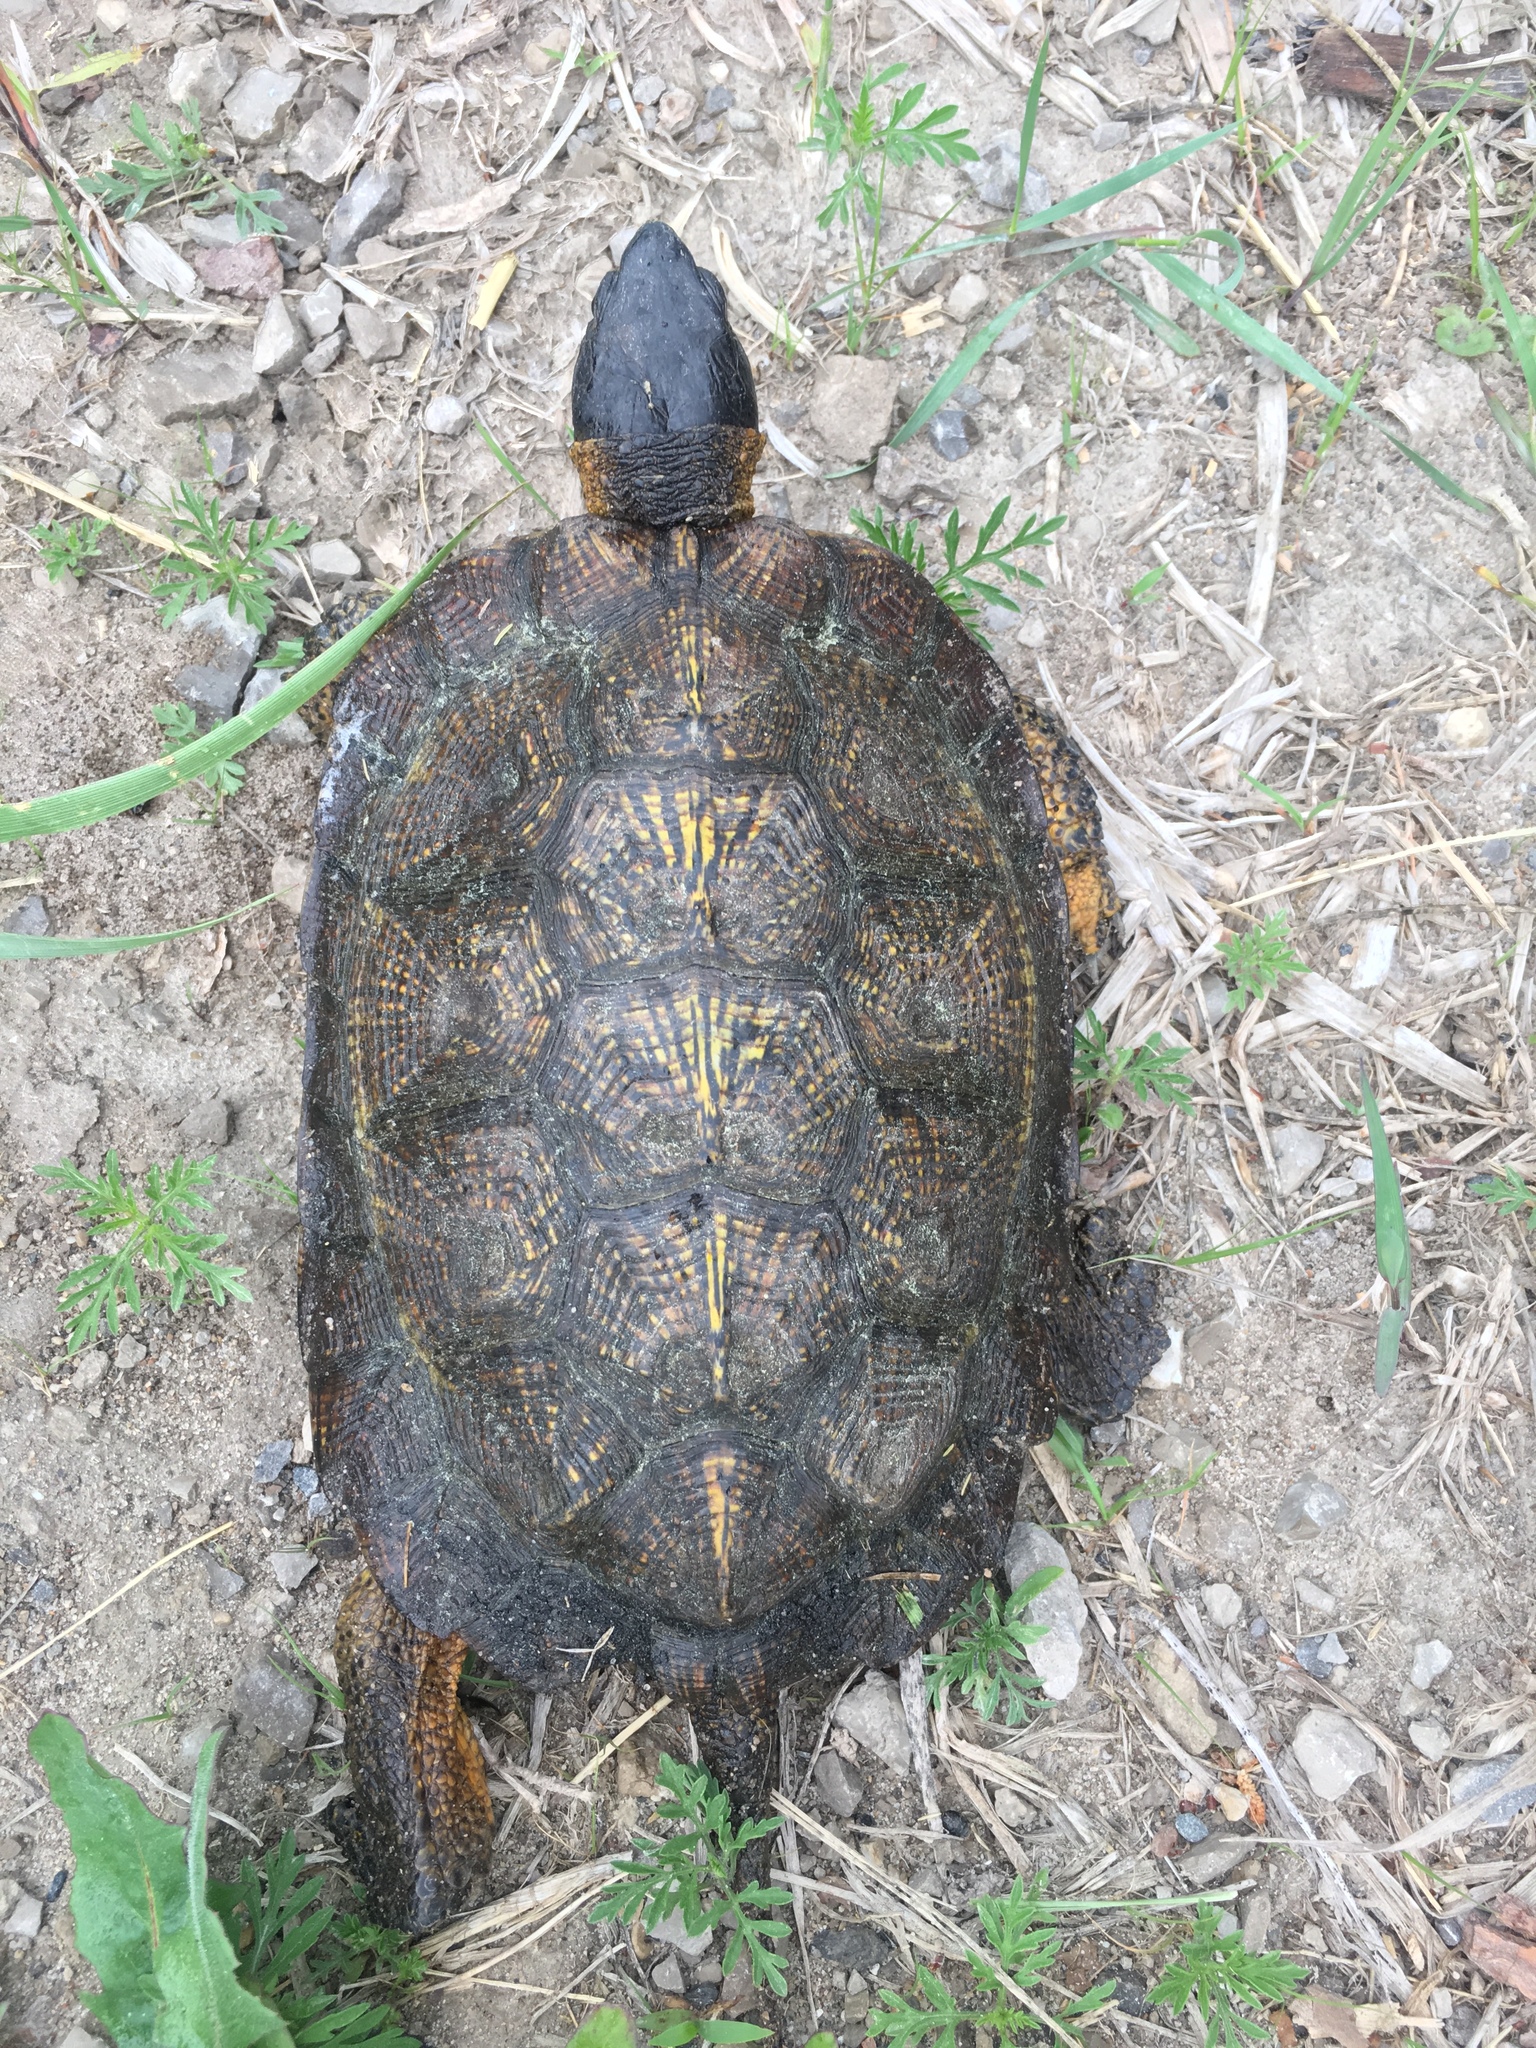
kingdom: Animalia
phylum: Chordata
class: Testudines
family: Emydidae
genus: Glyptemys
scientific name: Glyptemys insculpta
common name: Wood turtle
